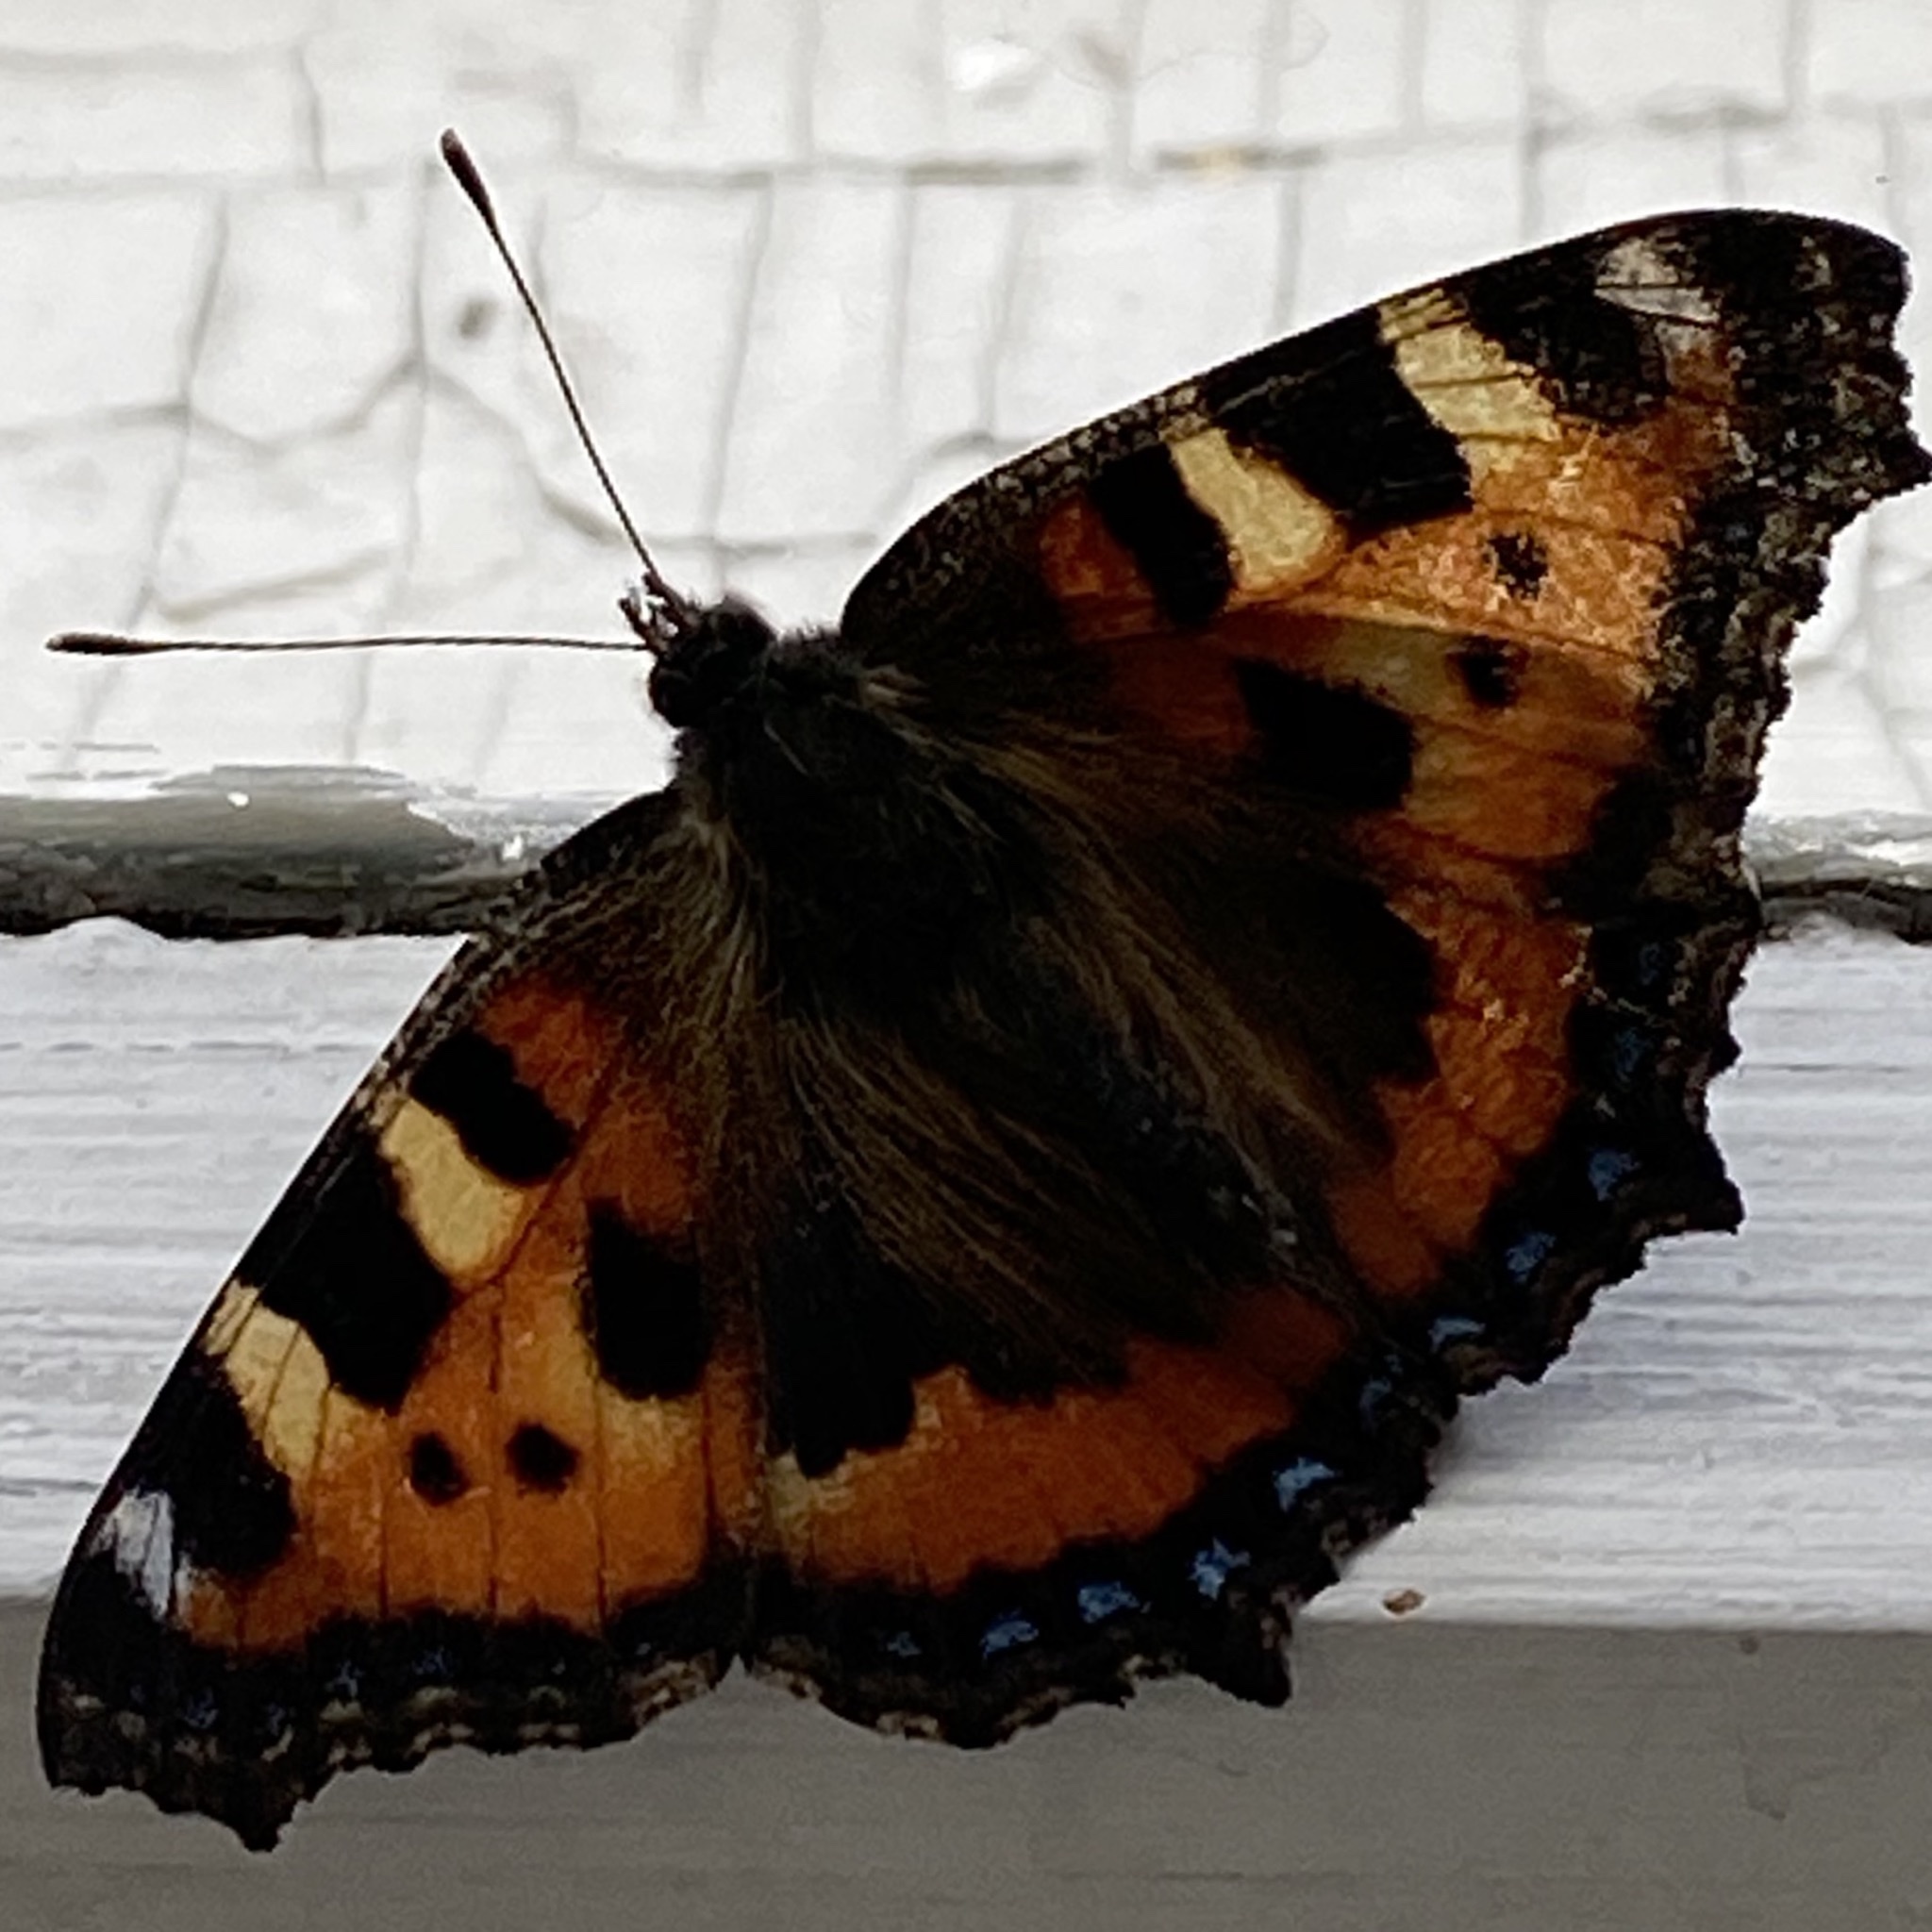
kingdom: Animalia
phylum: Arthropoda
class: Insecta
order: Lepidoptera
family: Nymphalidae
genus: Aglais
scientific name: Aglais urticae
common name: Small tortoiseshell
